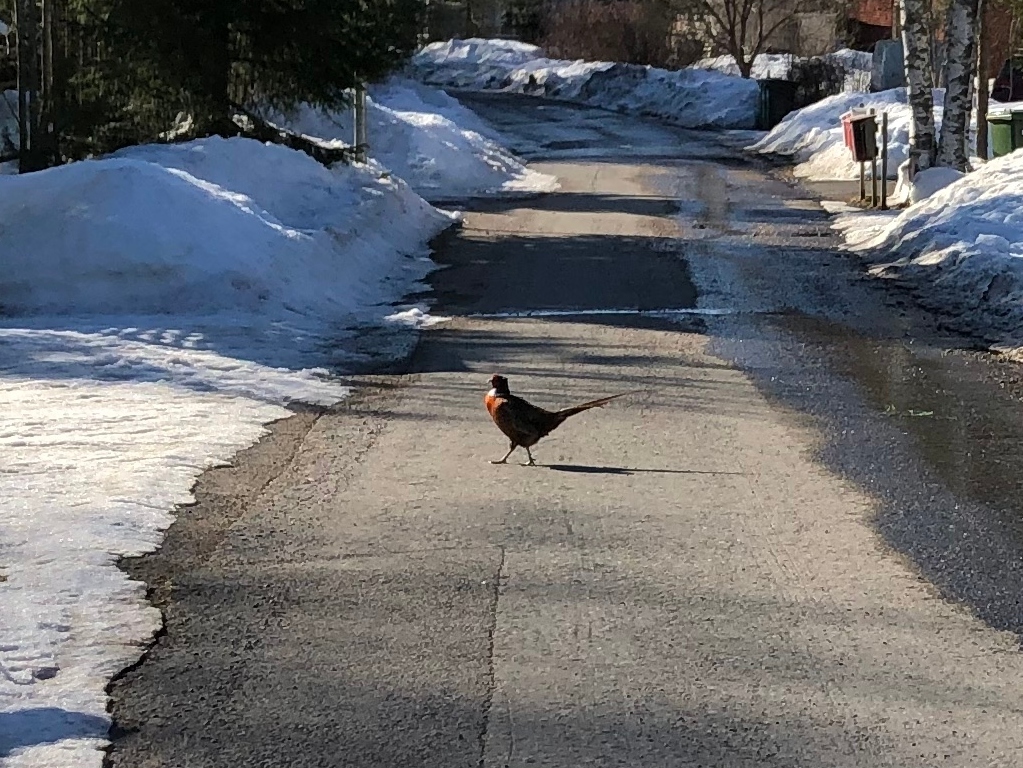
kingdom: Animalia
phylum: Chordata
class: Aves
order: Galliformes
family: Phasianidae
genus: Phasianus
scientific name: Phasianus colchicus
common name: Common pheasant
